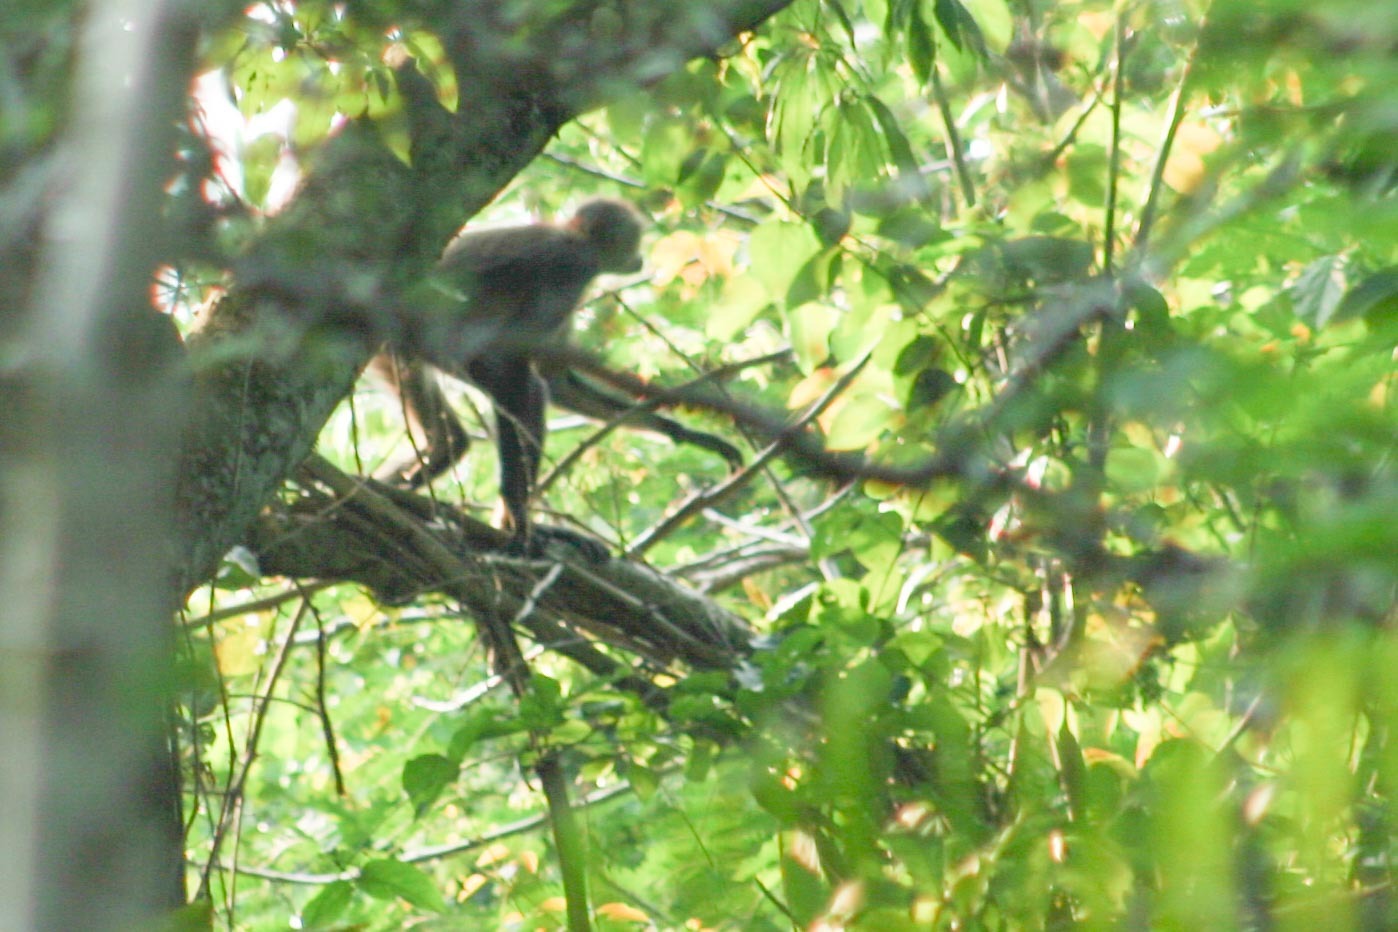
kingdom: Animalia
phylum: Chordata
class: Mammalia
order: Primates
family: Atelidae
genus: Ateles
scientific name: Ateles geoffroyi
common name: Black-handed spider monkey
